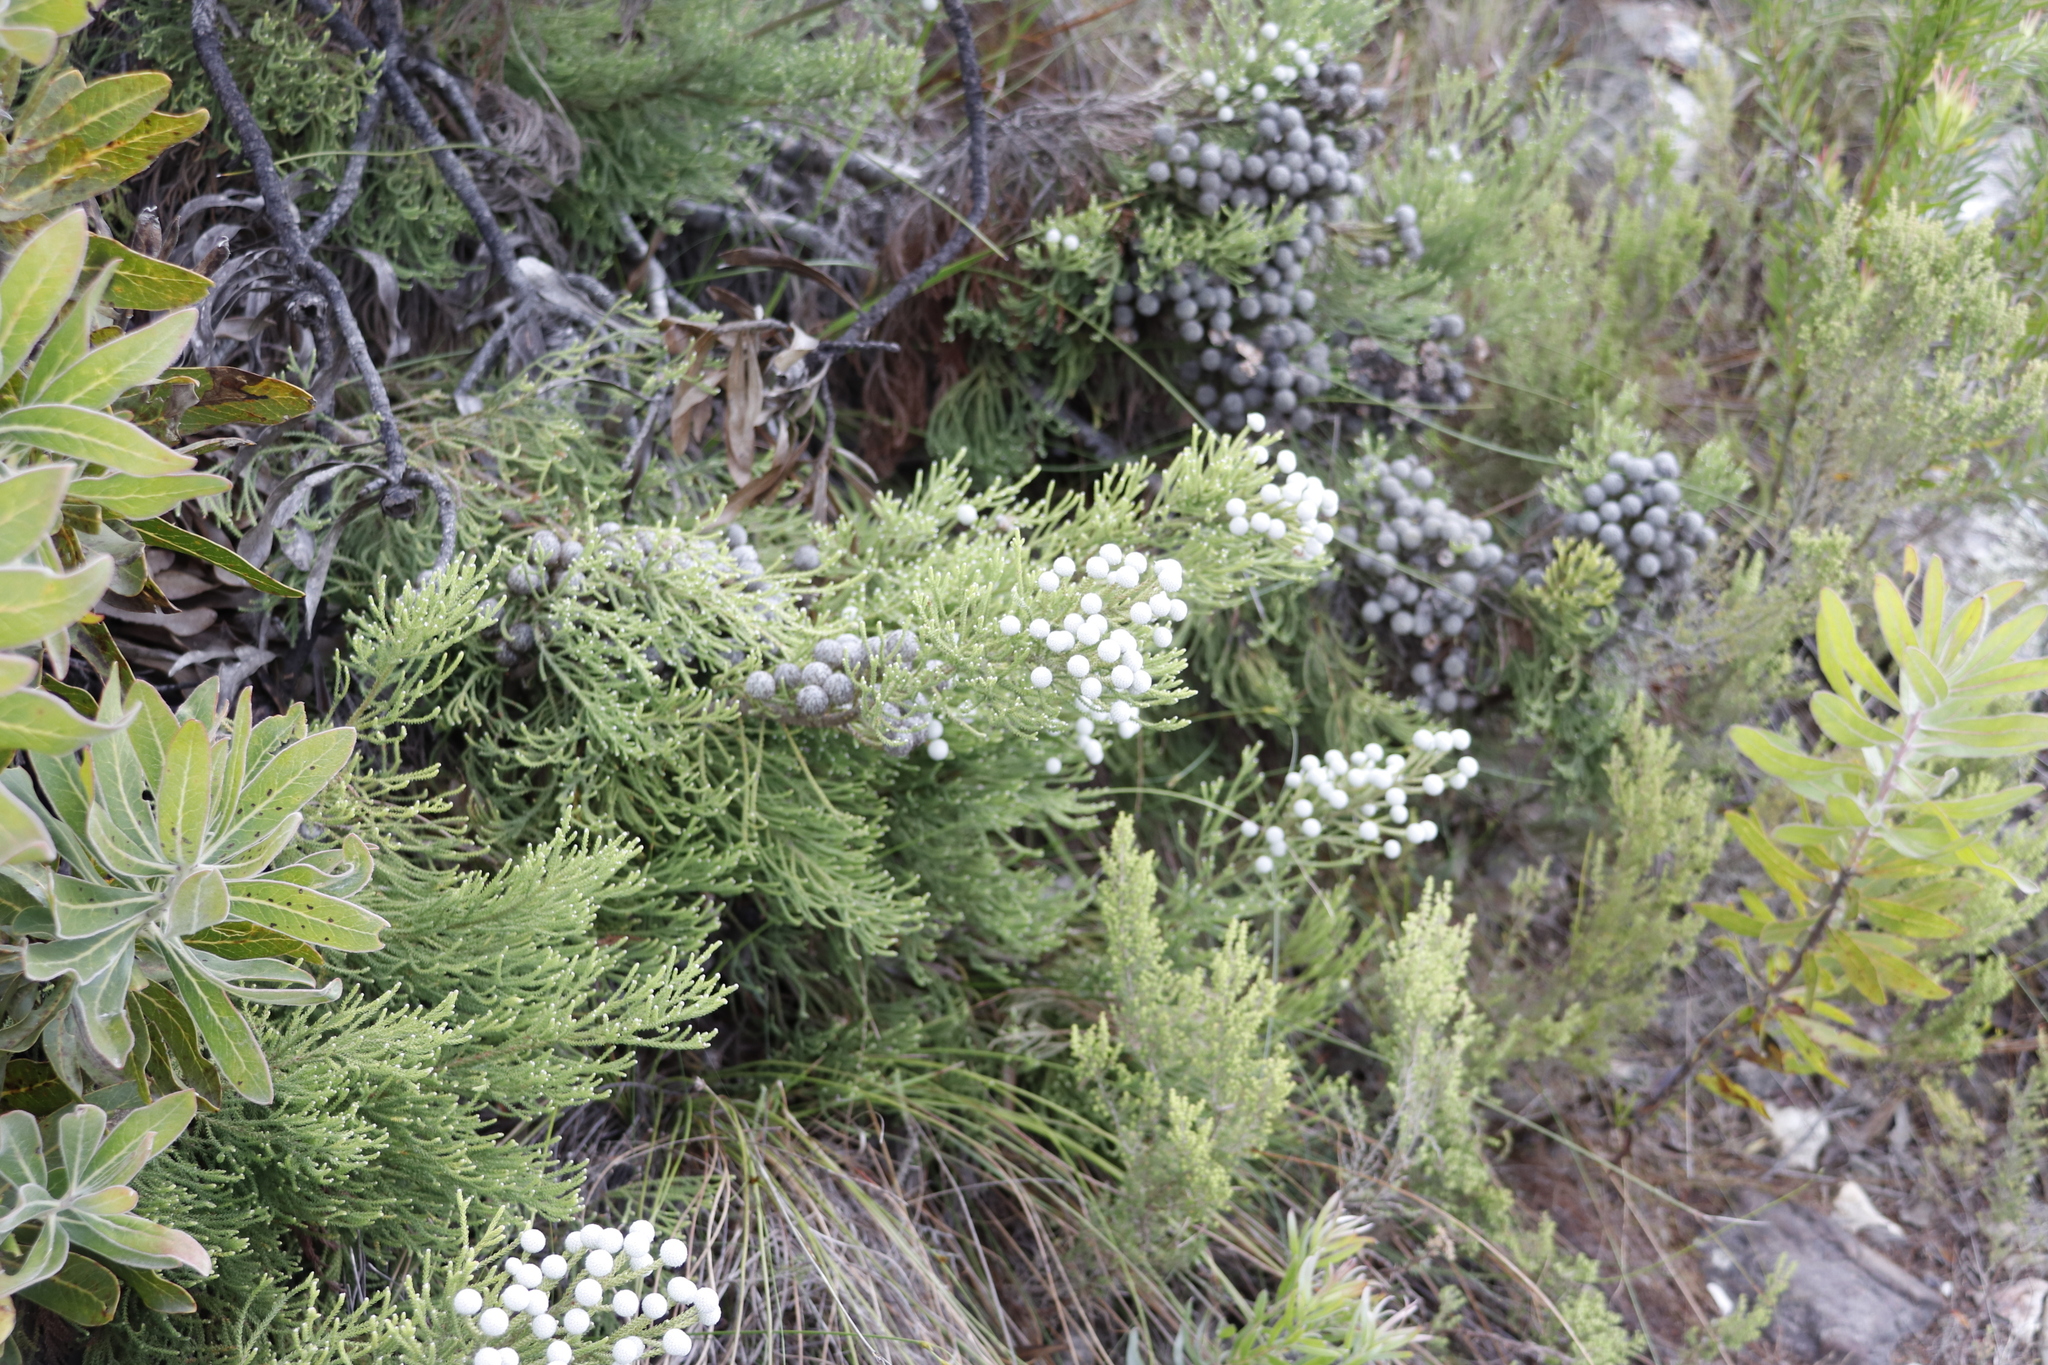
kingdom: Plantae
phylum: Tracheophyta
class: Magnoliopsida
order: Bruniales
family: Bruniaceae
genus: Brunia
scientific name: Brunia noduliflora
